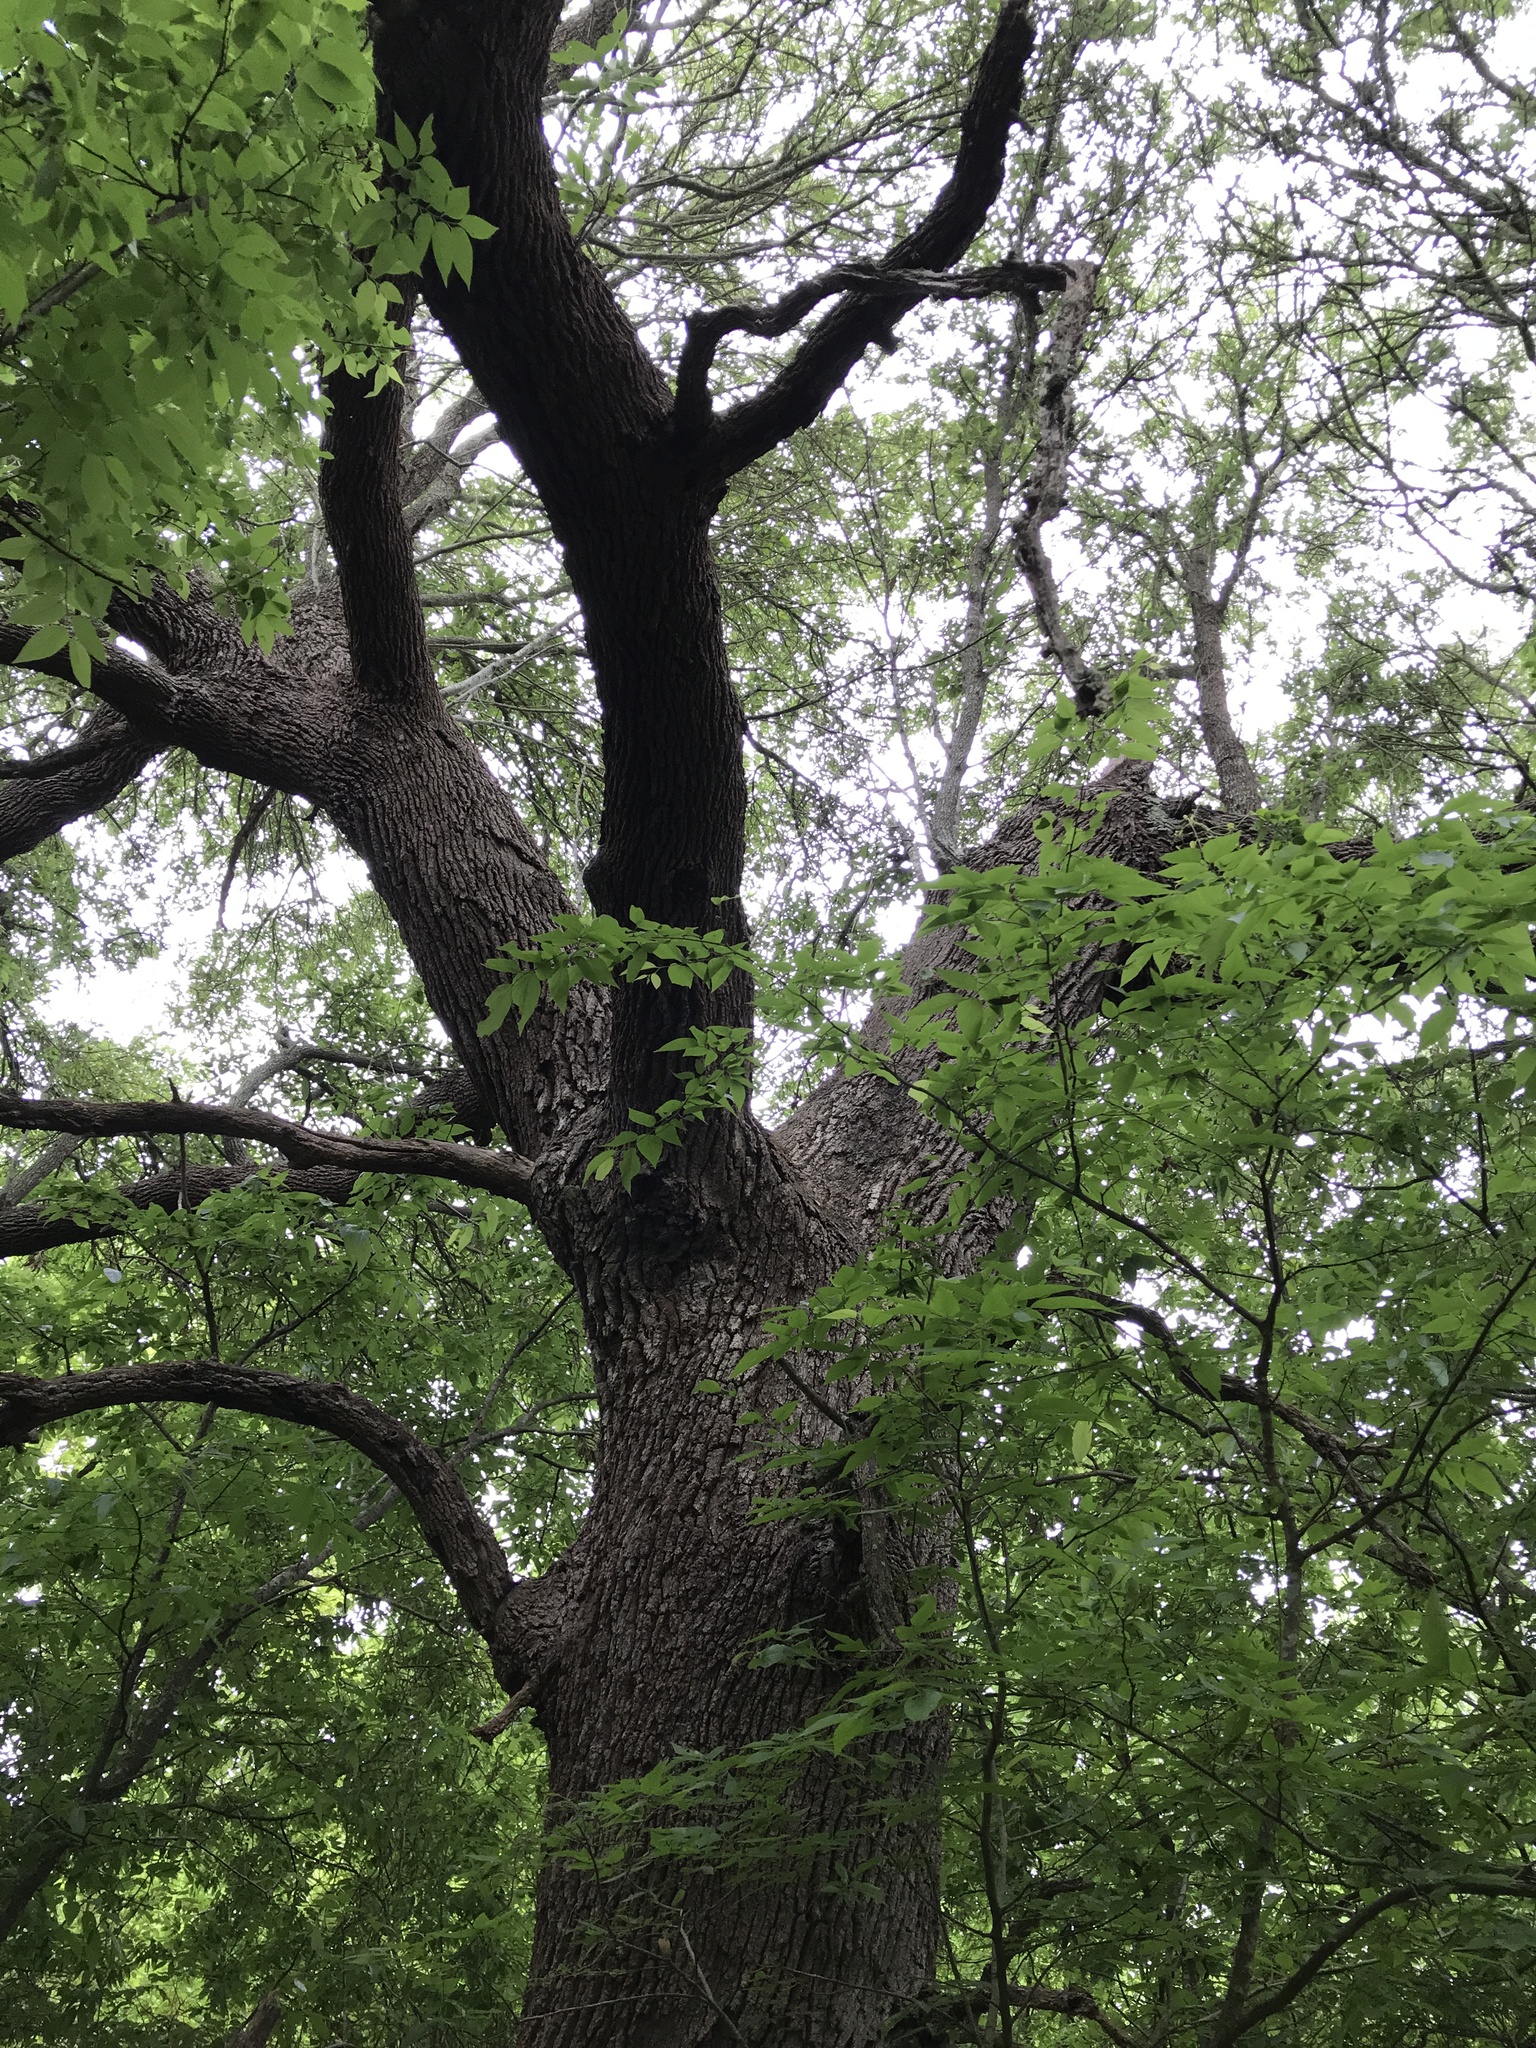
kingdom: Plantae
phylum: Tracheophyta
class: Magnoliopsida
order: Fagales
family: Fagaceae
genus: Quercus
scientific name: Quercus fusiformis
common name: Texas live oak
